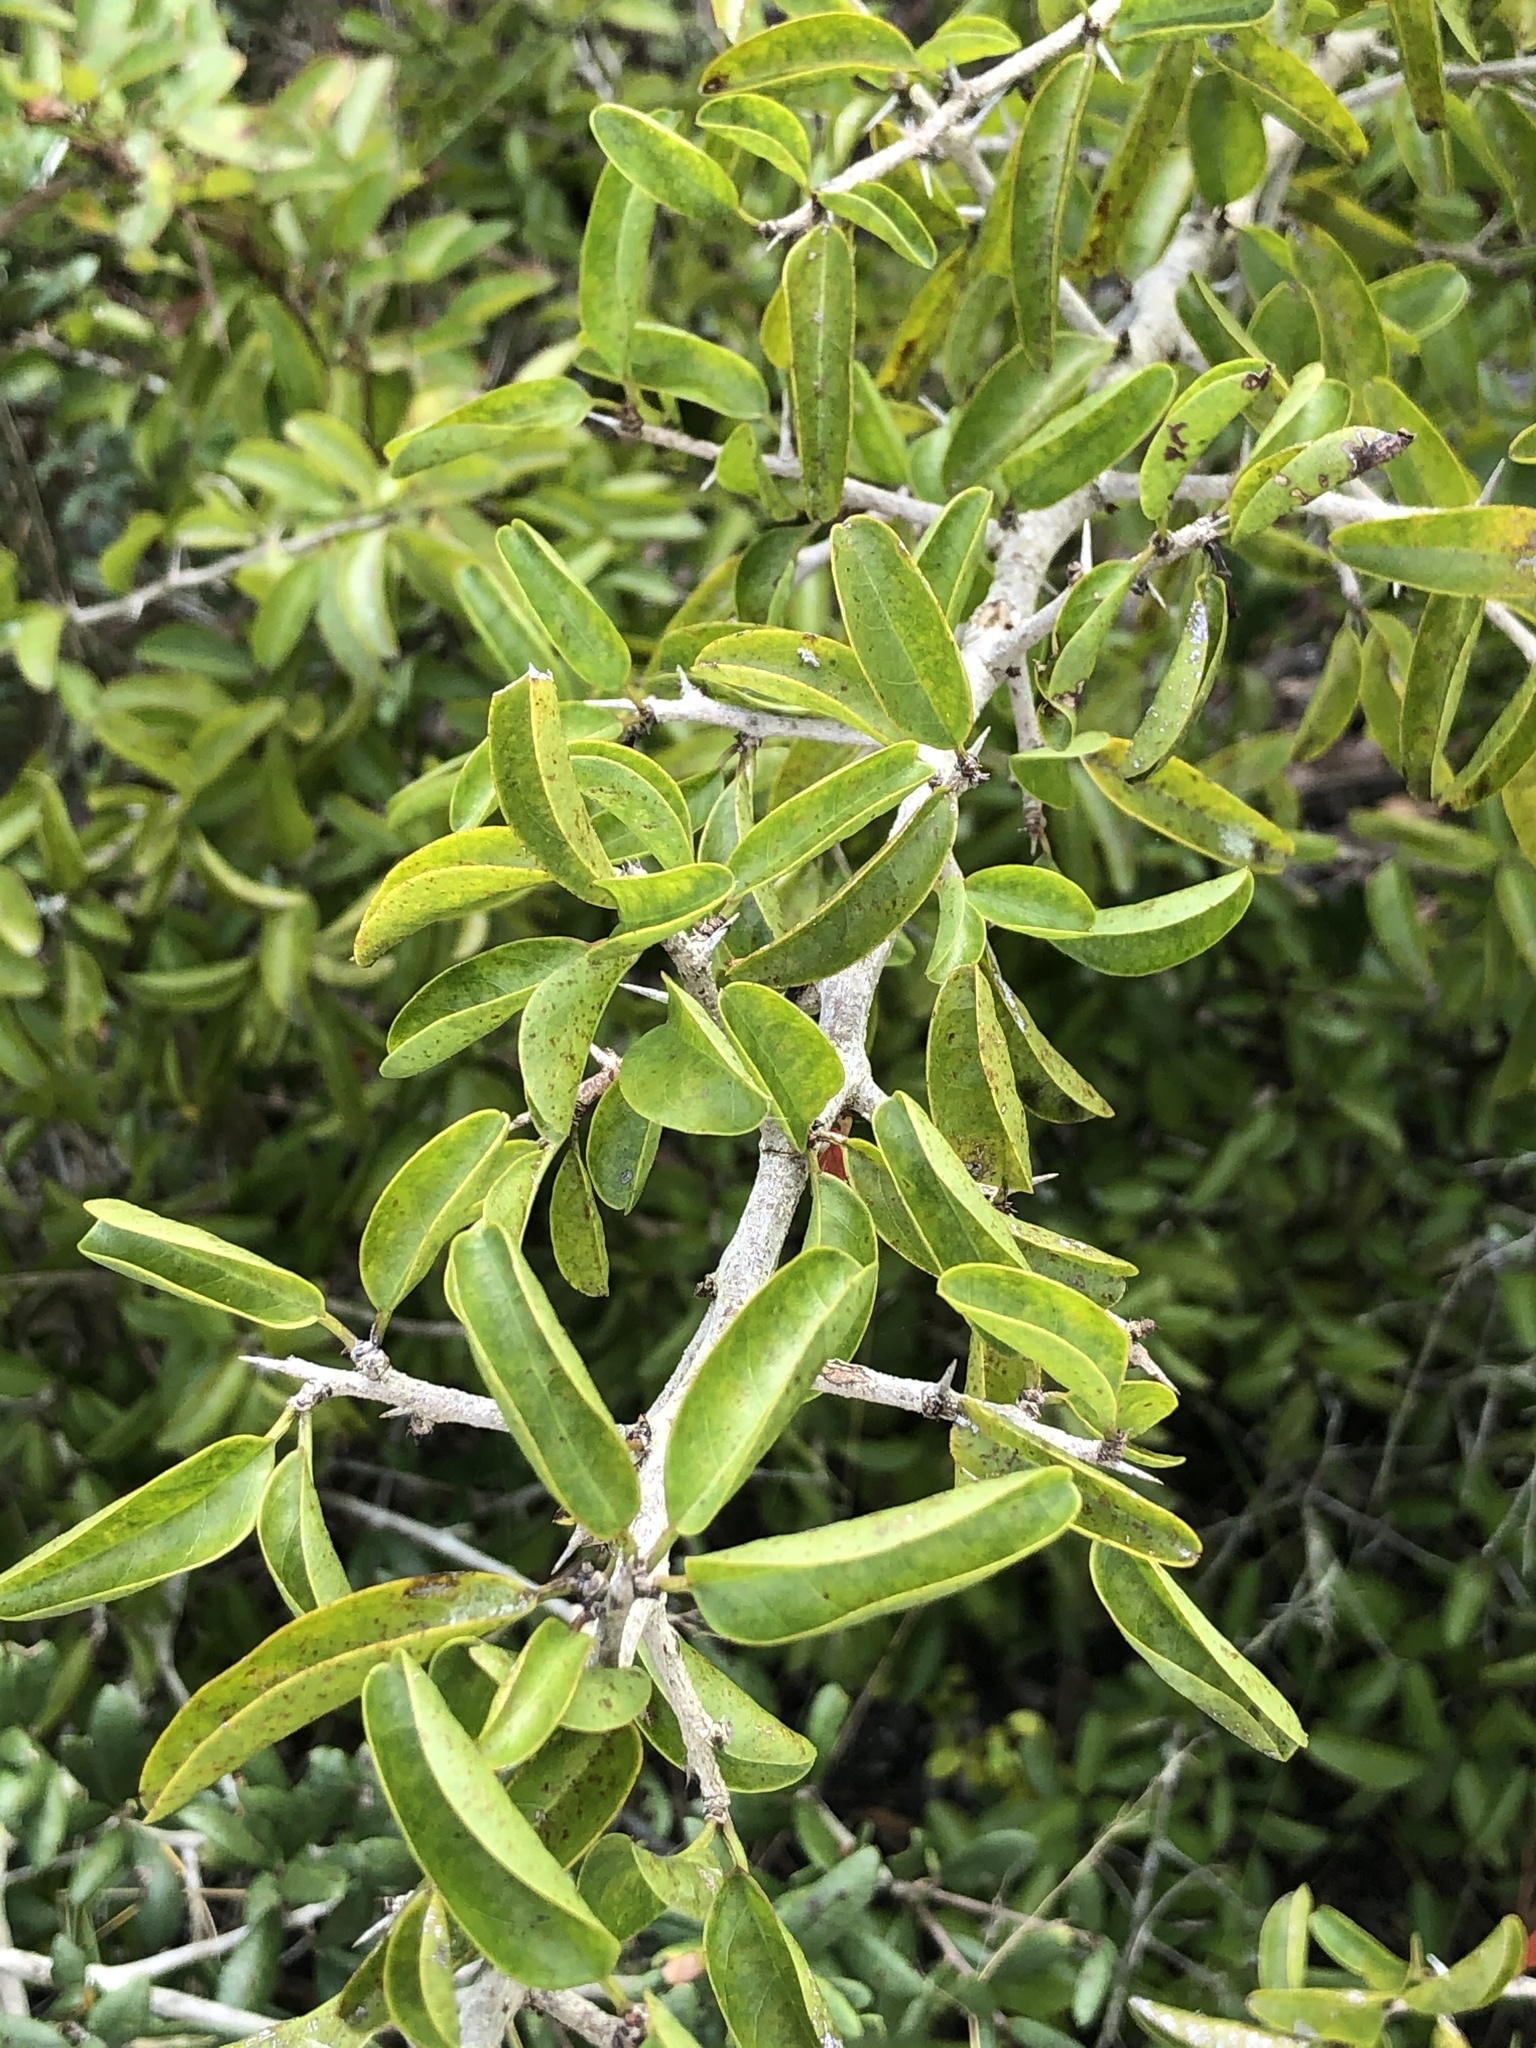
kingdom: Plantae
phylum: Tracheophyta
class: Magnoliopsida
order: Santalales
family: Ximeniaceae
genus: Ximenia
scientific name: Ximenia americana
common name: Tallowwood
